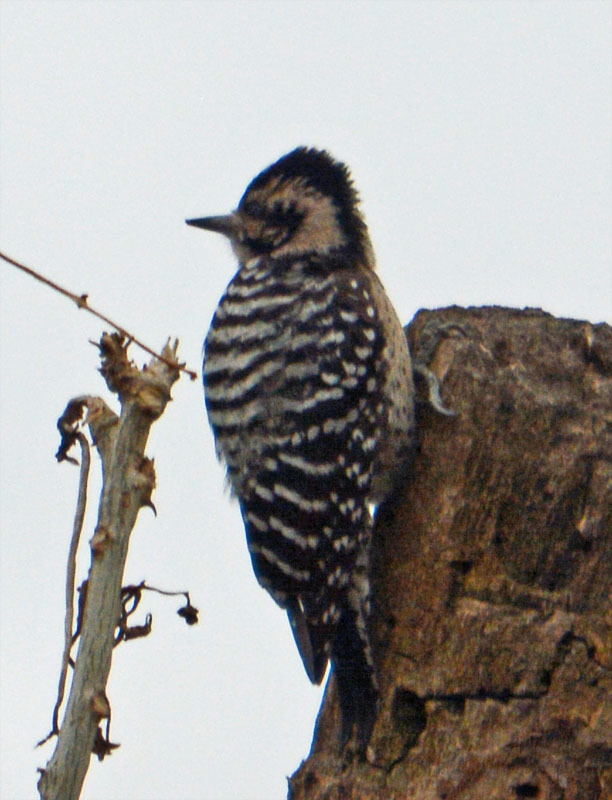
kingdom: Animalia
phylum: Chordata
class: Aves
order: Piciformes
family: Picidae
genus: Dryobates
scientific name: Dryobates scalaris
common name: Ladder-backed woodpecker
